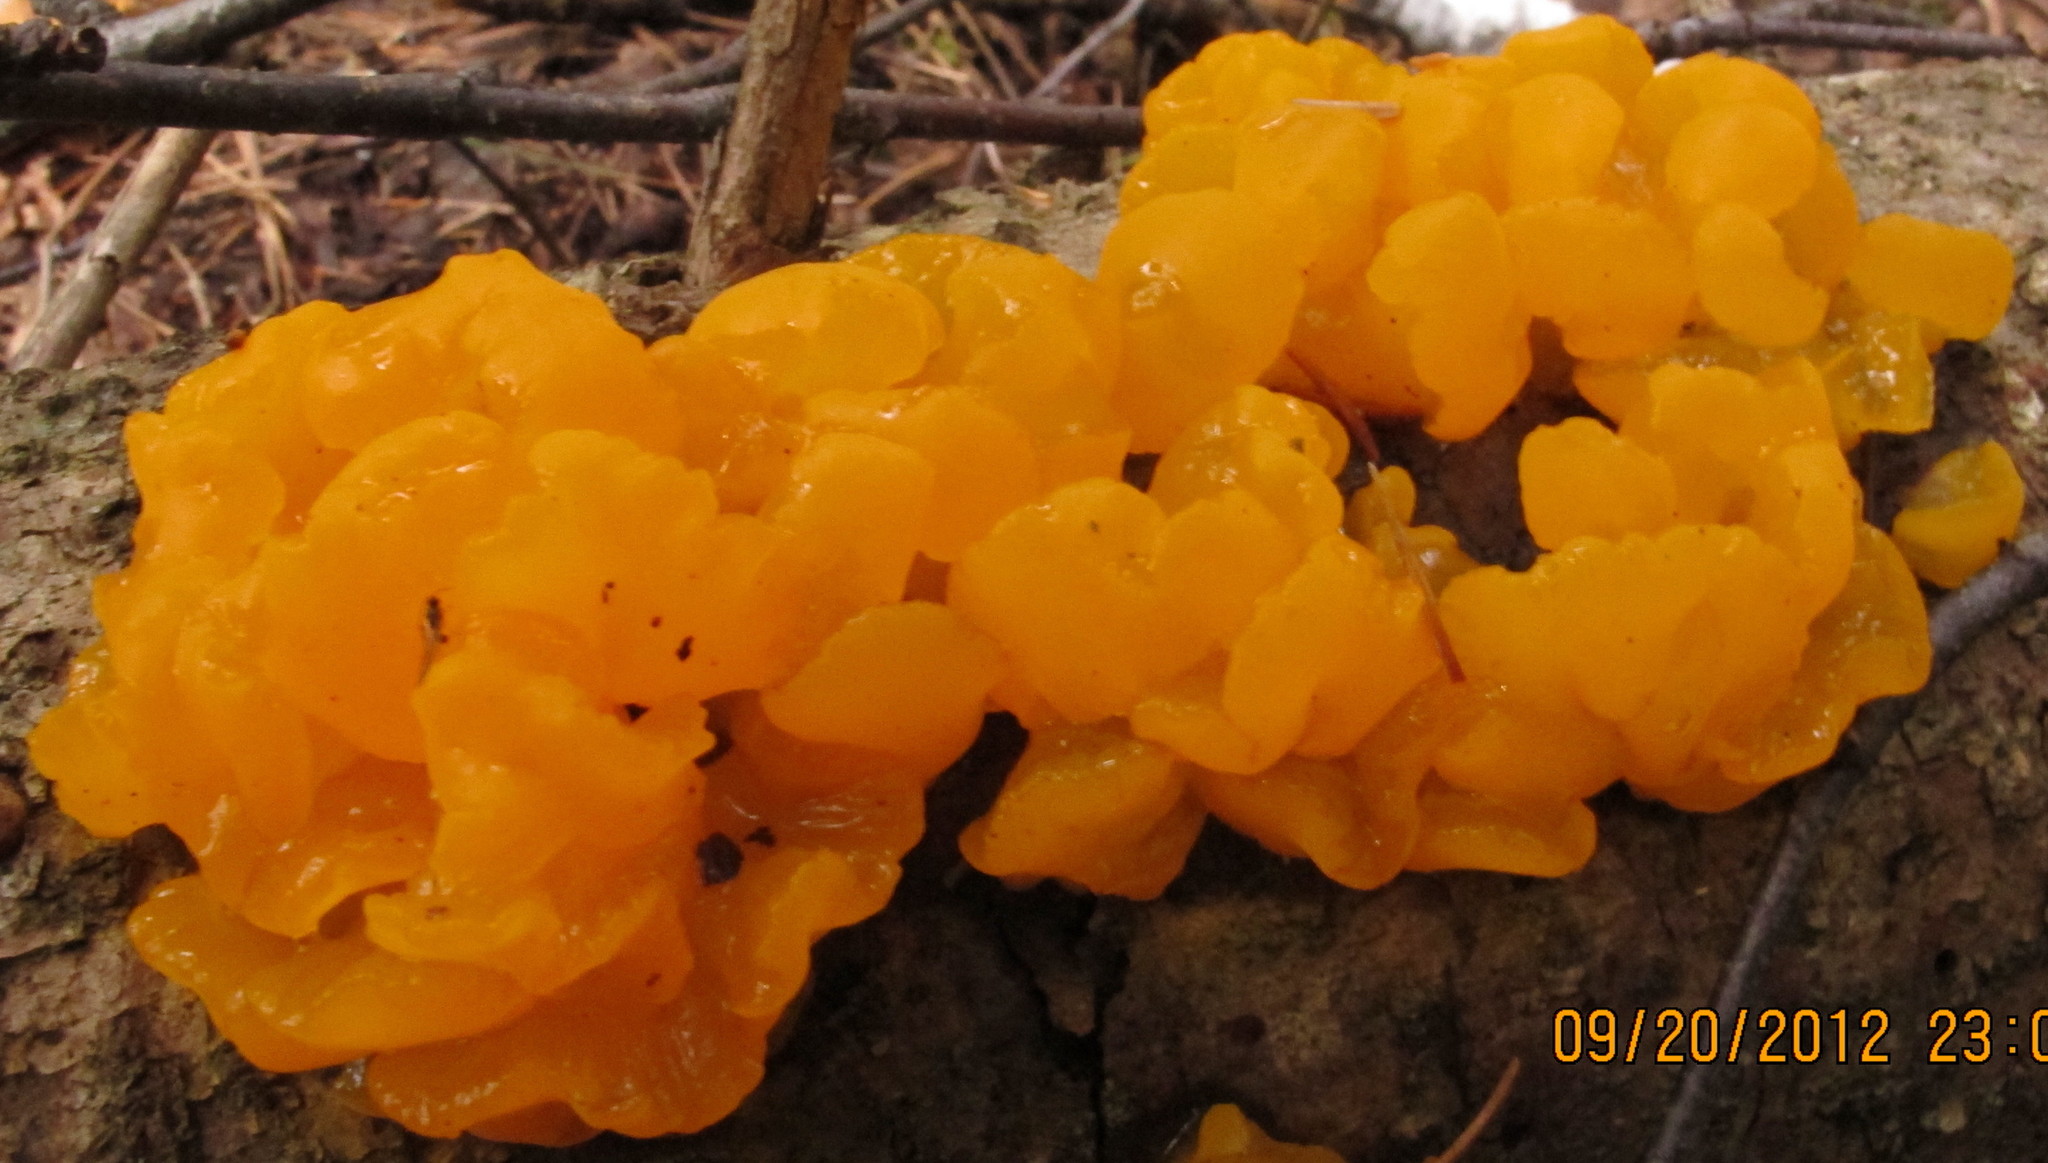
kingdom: Fungi
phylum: Basidiomycota
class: Dacrymycetes
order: Dacrymycetales
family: Dacrymycetaceae
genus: Dacrymyces
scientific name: Dacrymyces chrysospermus
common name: Orange jelly spot
